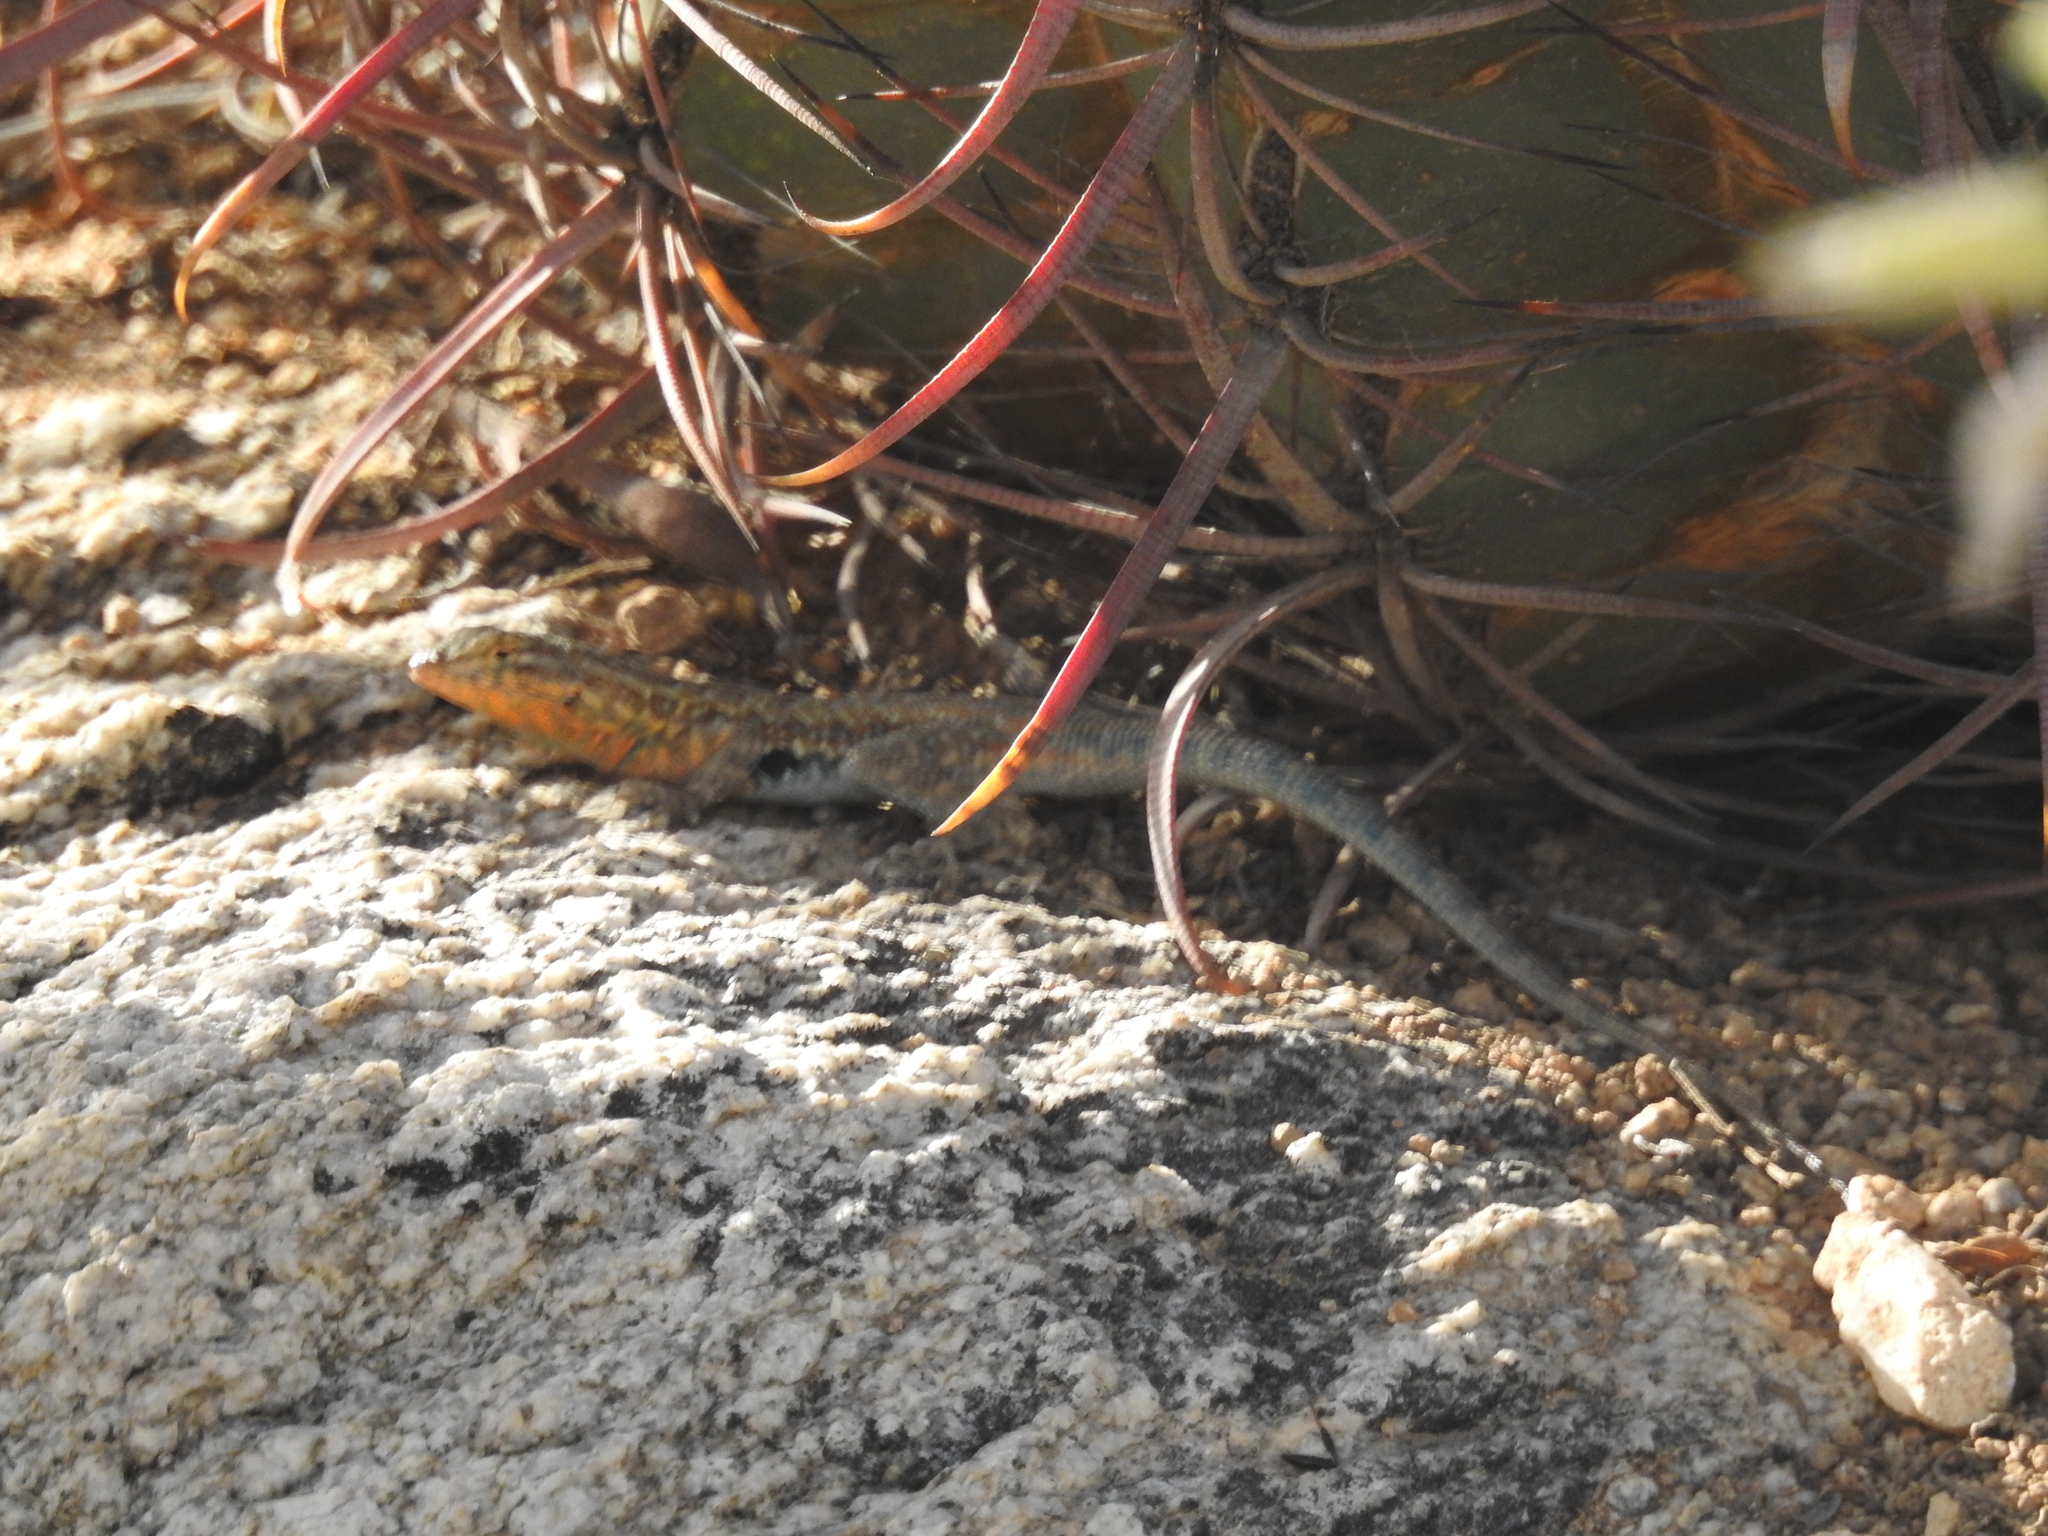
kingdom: Animalia
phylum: Chordata
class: Squamata
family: Phrynosomatidae
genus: Uta
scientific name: Uta stansburiana
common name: Side-blotched lizard
